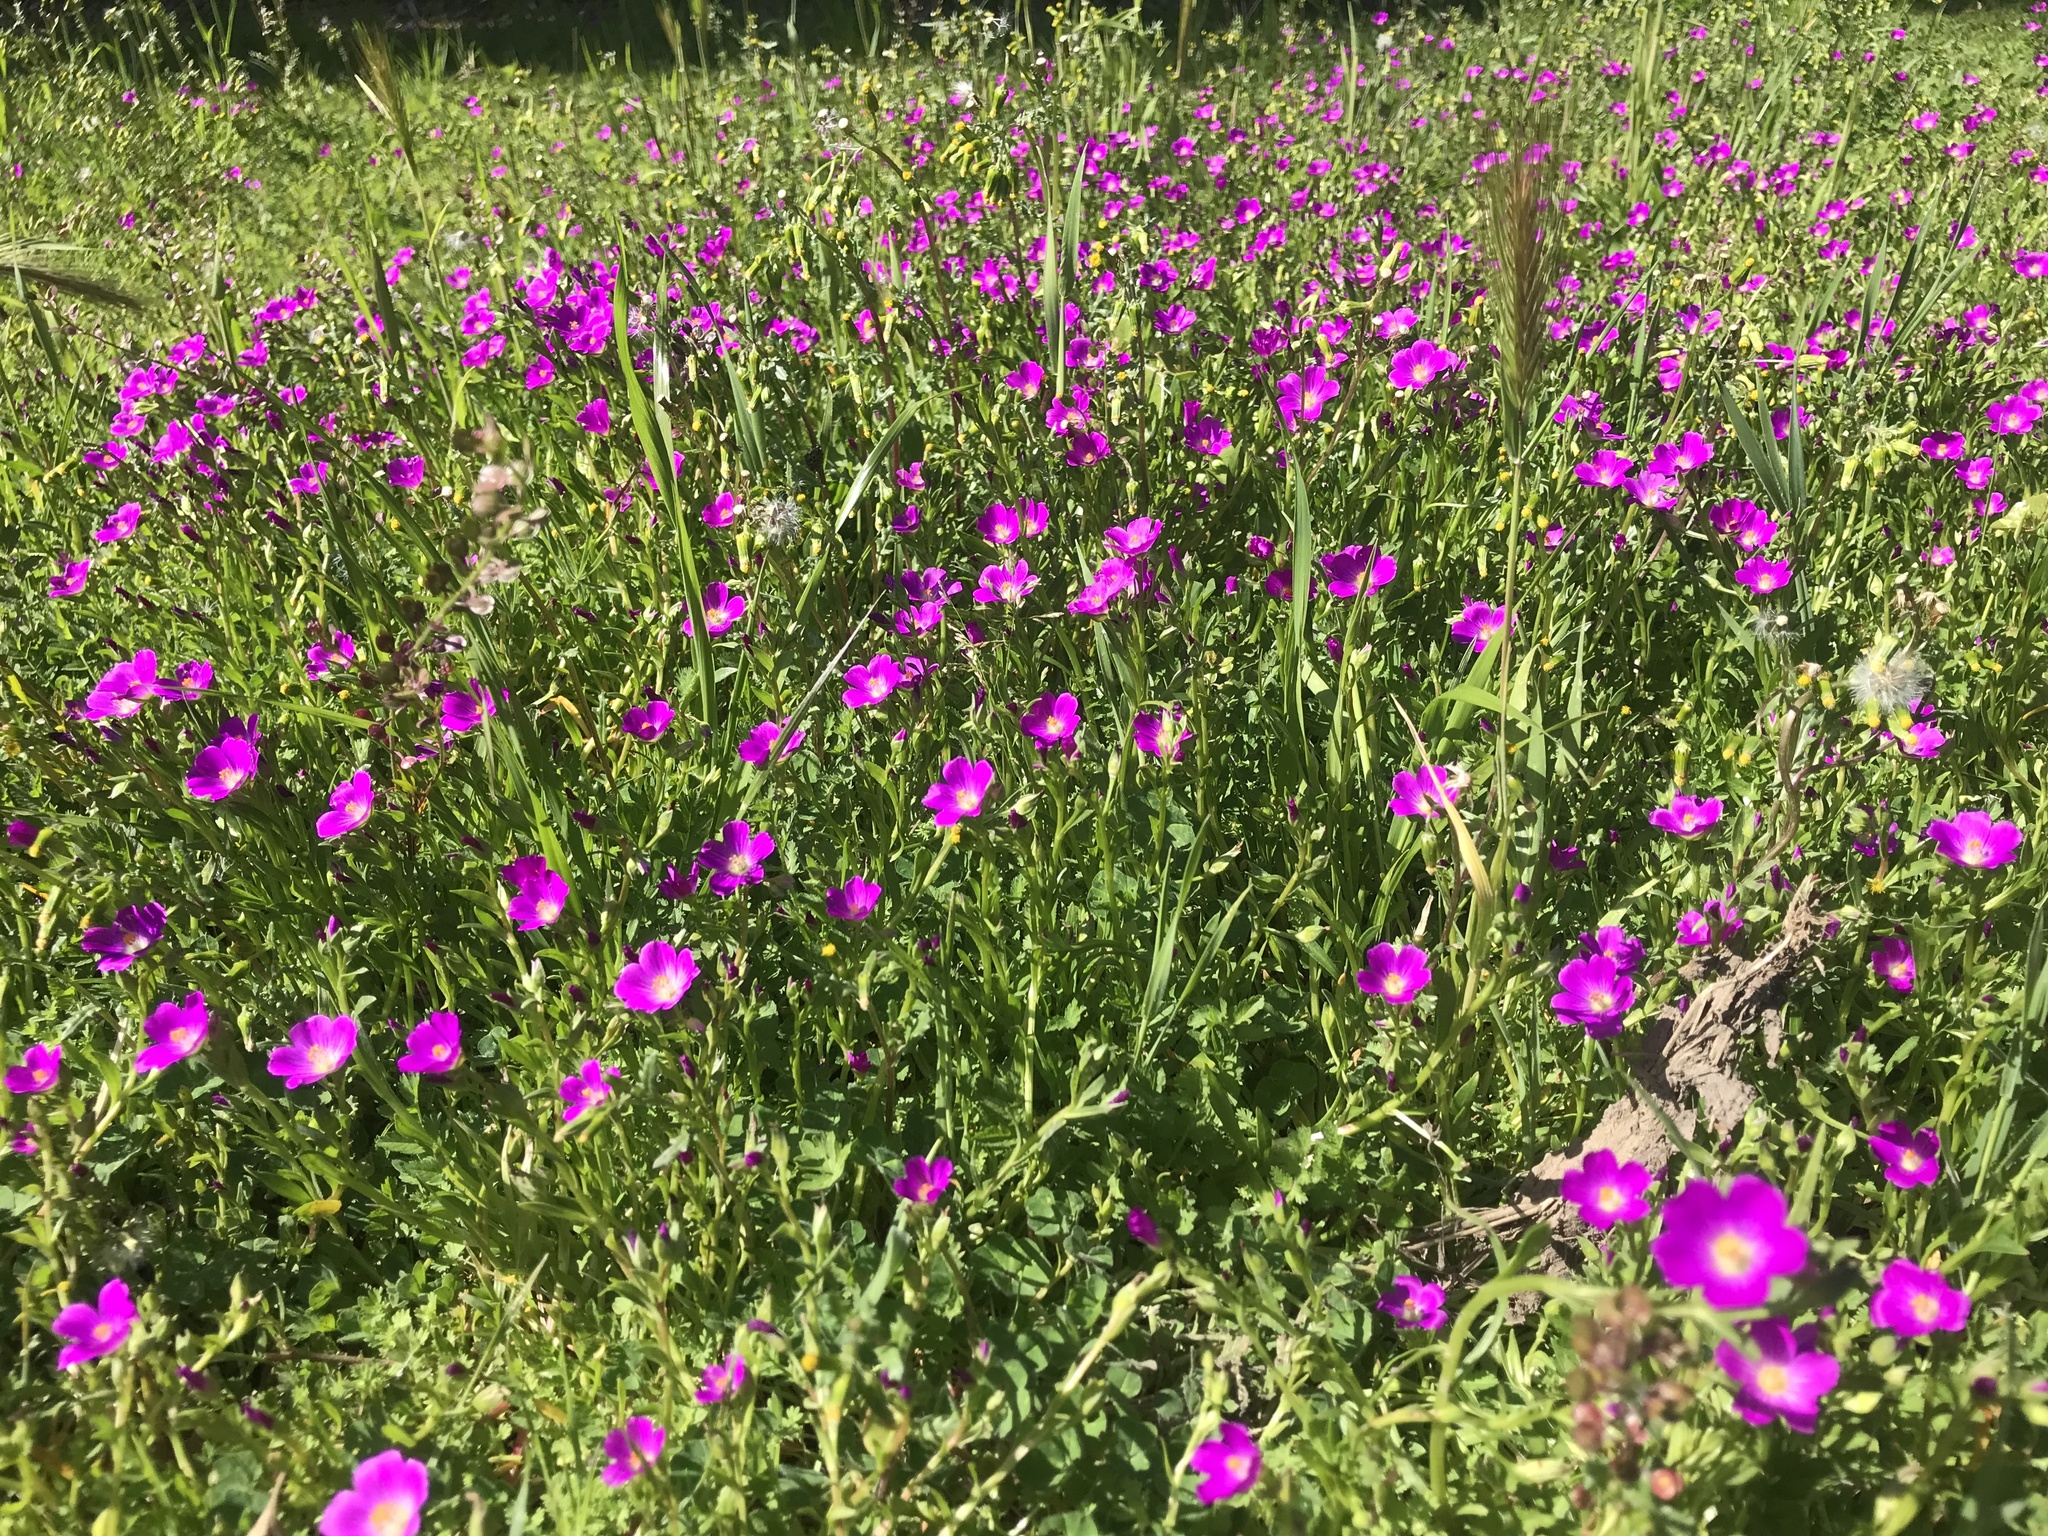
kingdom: Plantae
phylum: Tracheophyta
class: Magnoliopsida
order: Caryophyllales
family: Montiaceae
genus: Calandrinia
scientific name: Calandrinia menziesii
